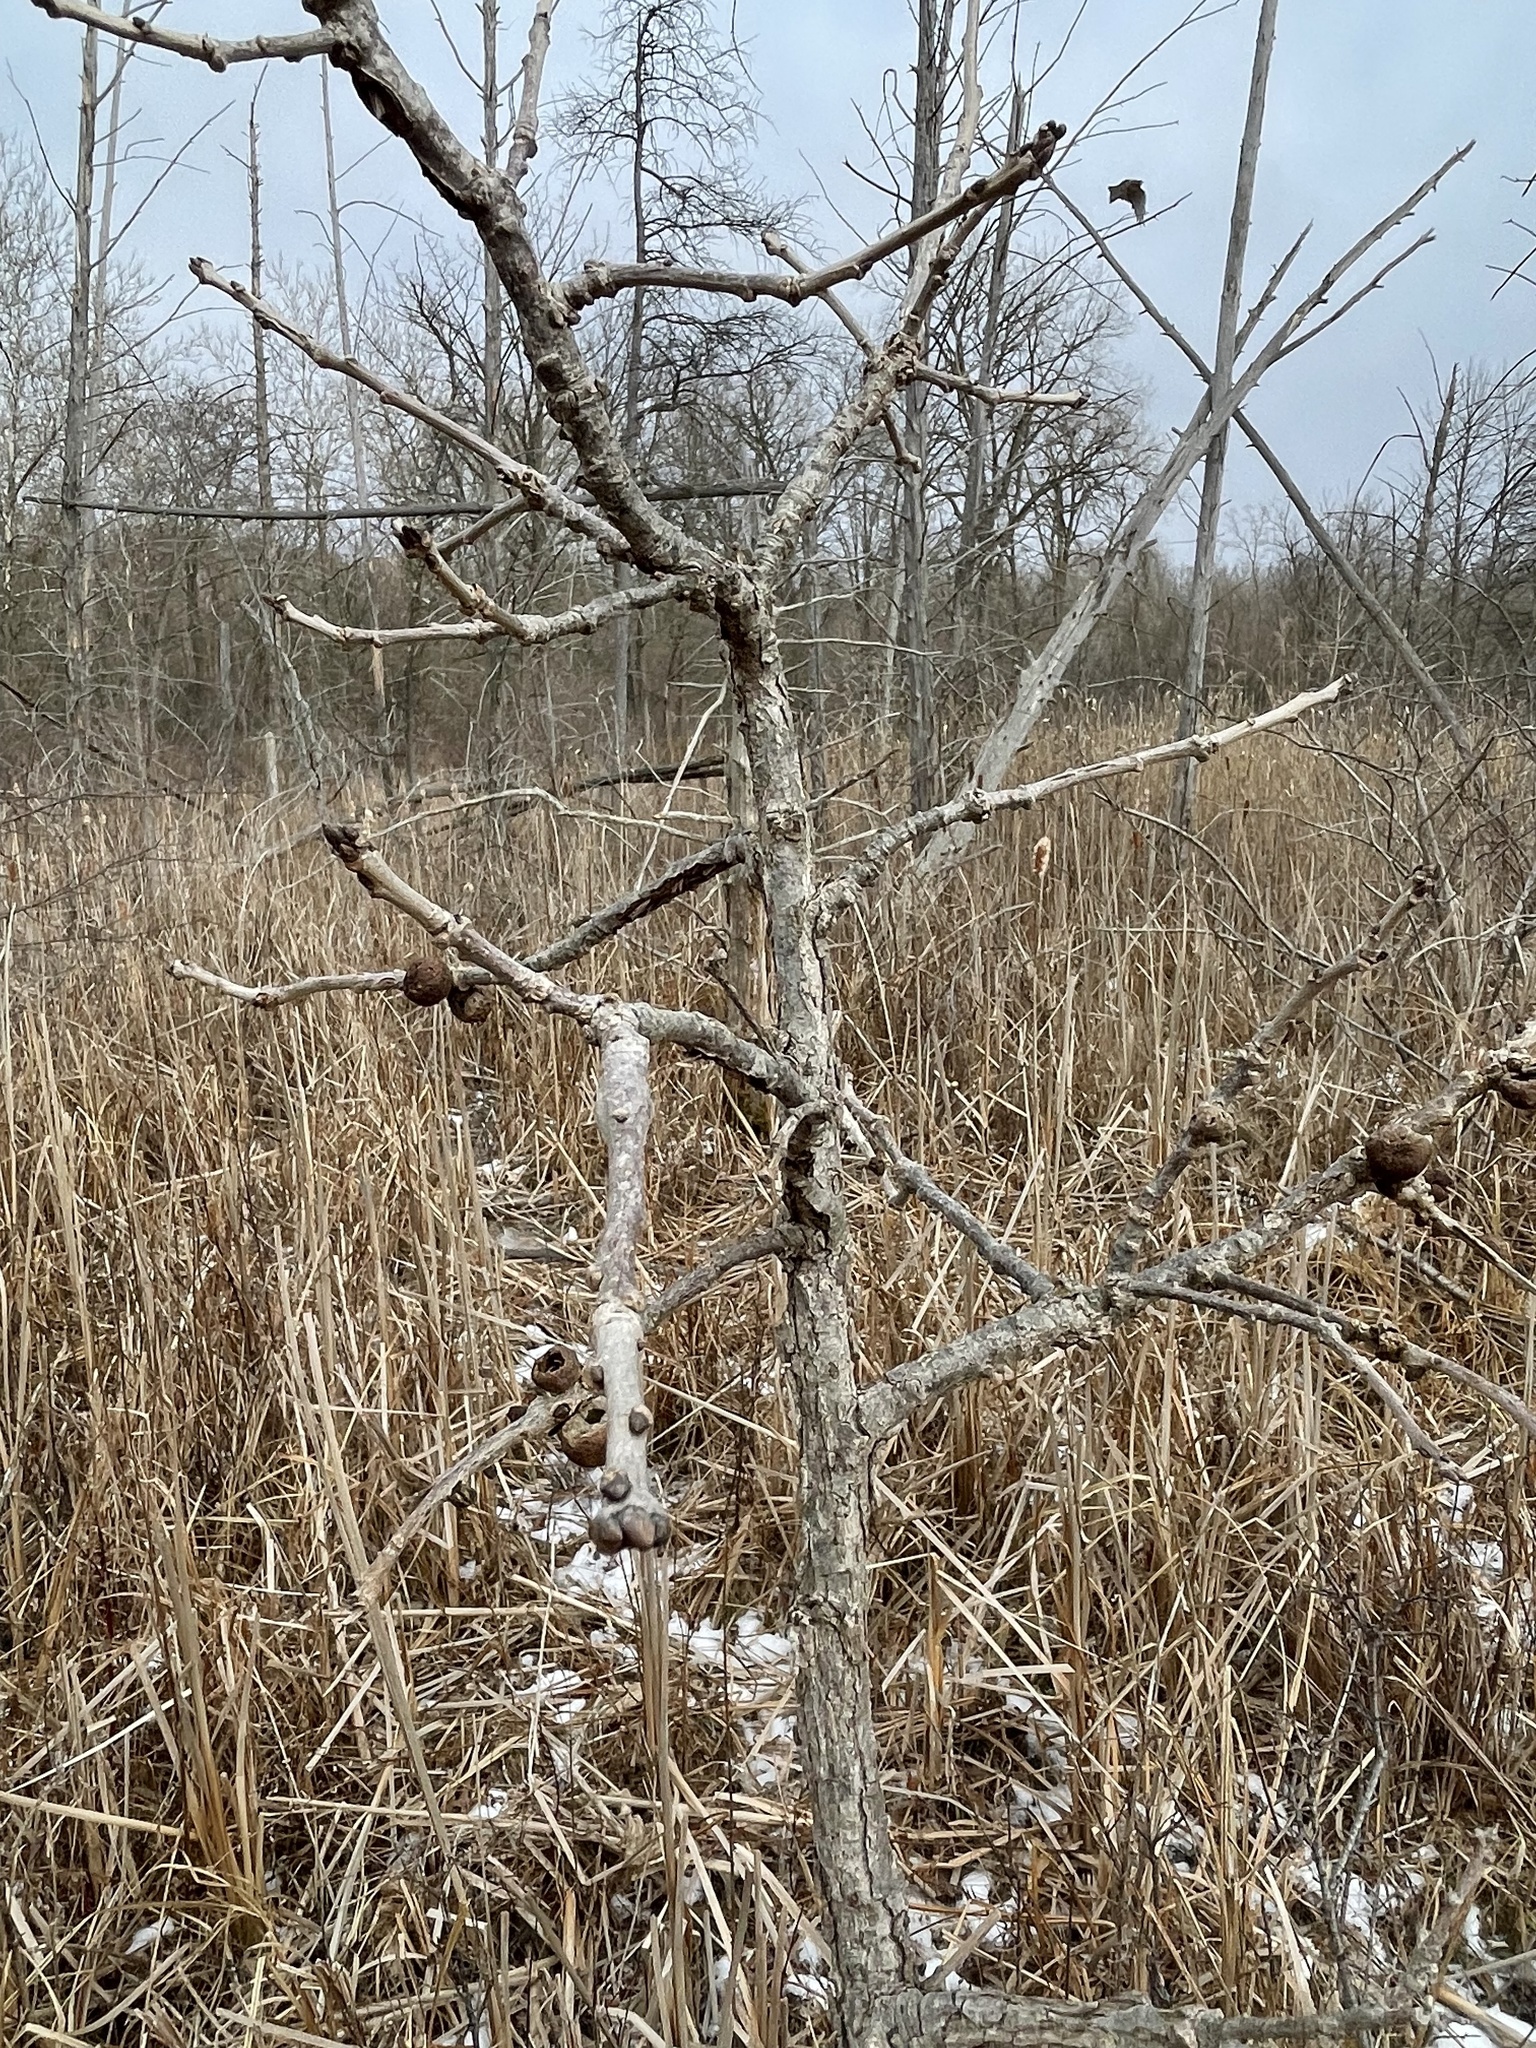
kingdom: Animalia
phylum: Arthropoda
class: Insecta
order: Hymenoptera
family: Cynipidae
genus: Disholcaspis
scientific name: Disholcaspis
